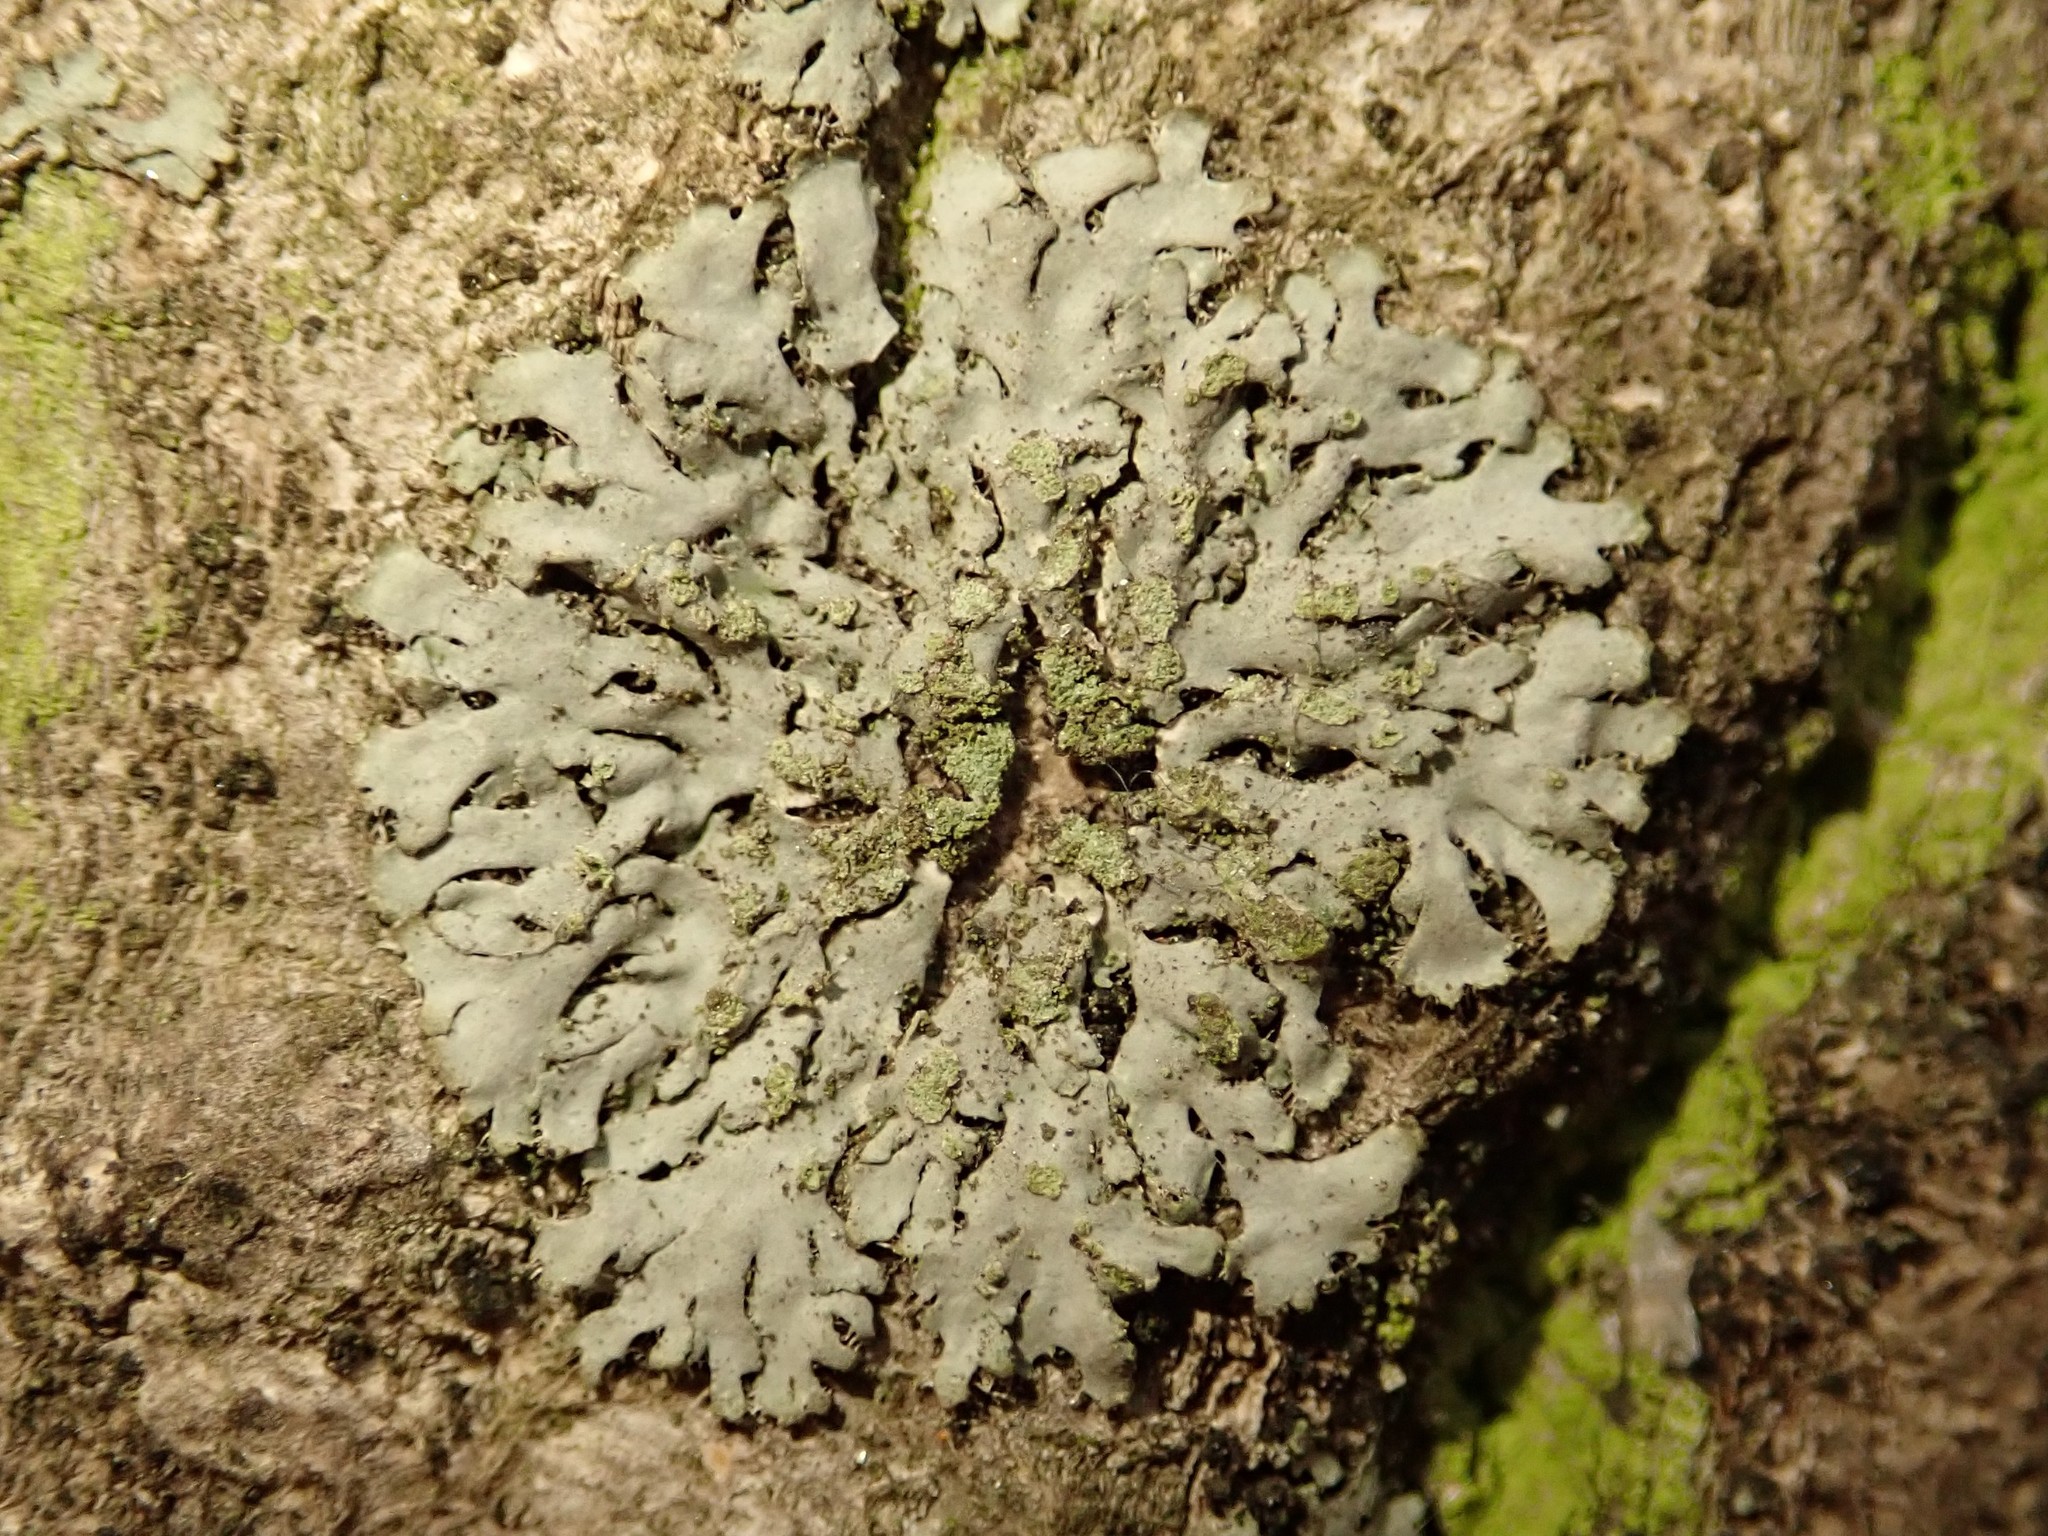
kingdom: Fungi
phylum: Ascomycota
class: Lecanoromycetes
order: Caliciales
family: Physciaceae
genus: Phaeophyscia
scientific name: Phaeophyscia orbicularis
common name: Mealy shadow lichen
